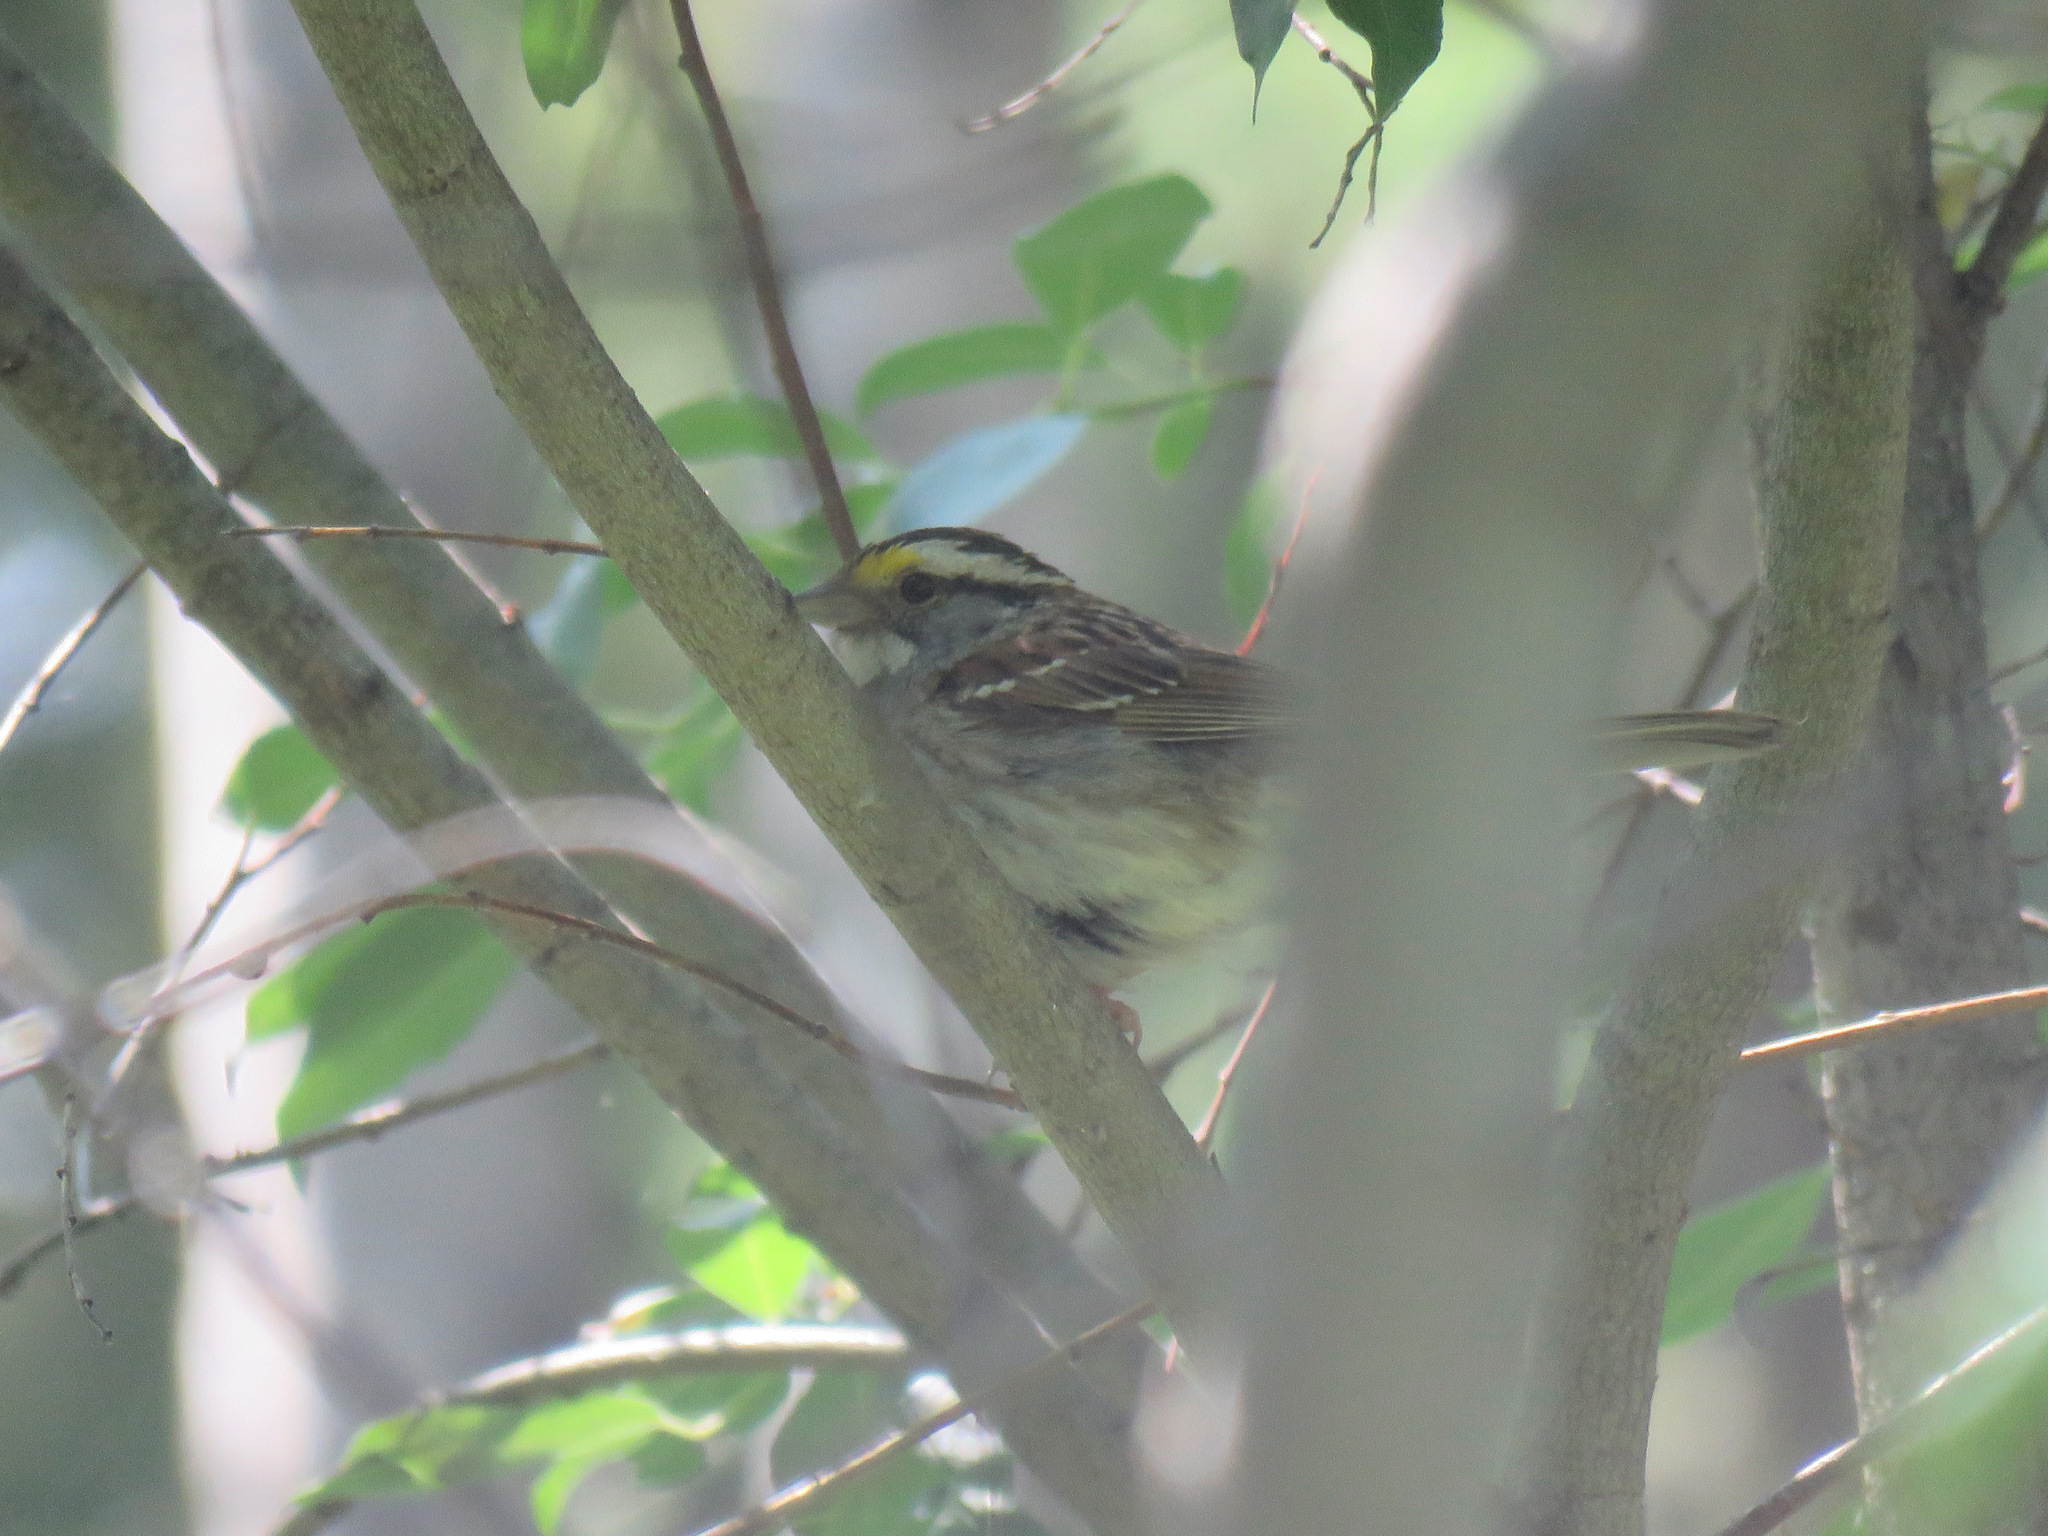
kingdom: Animalia
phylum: Chordata
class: Aves
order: Passeriformes
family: Passerellidae
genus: Zonotrichia
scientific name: Zonotrichia albicollis
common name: White-throated sparrow
